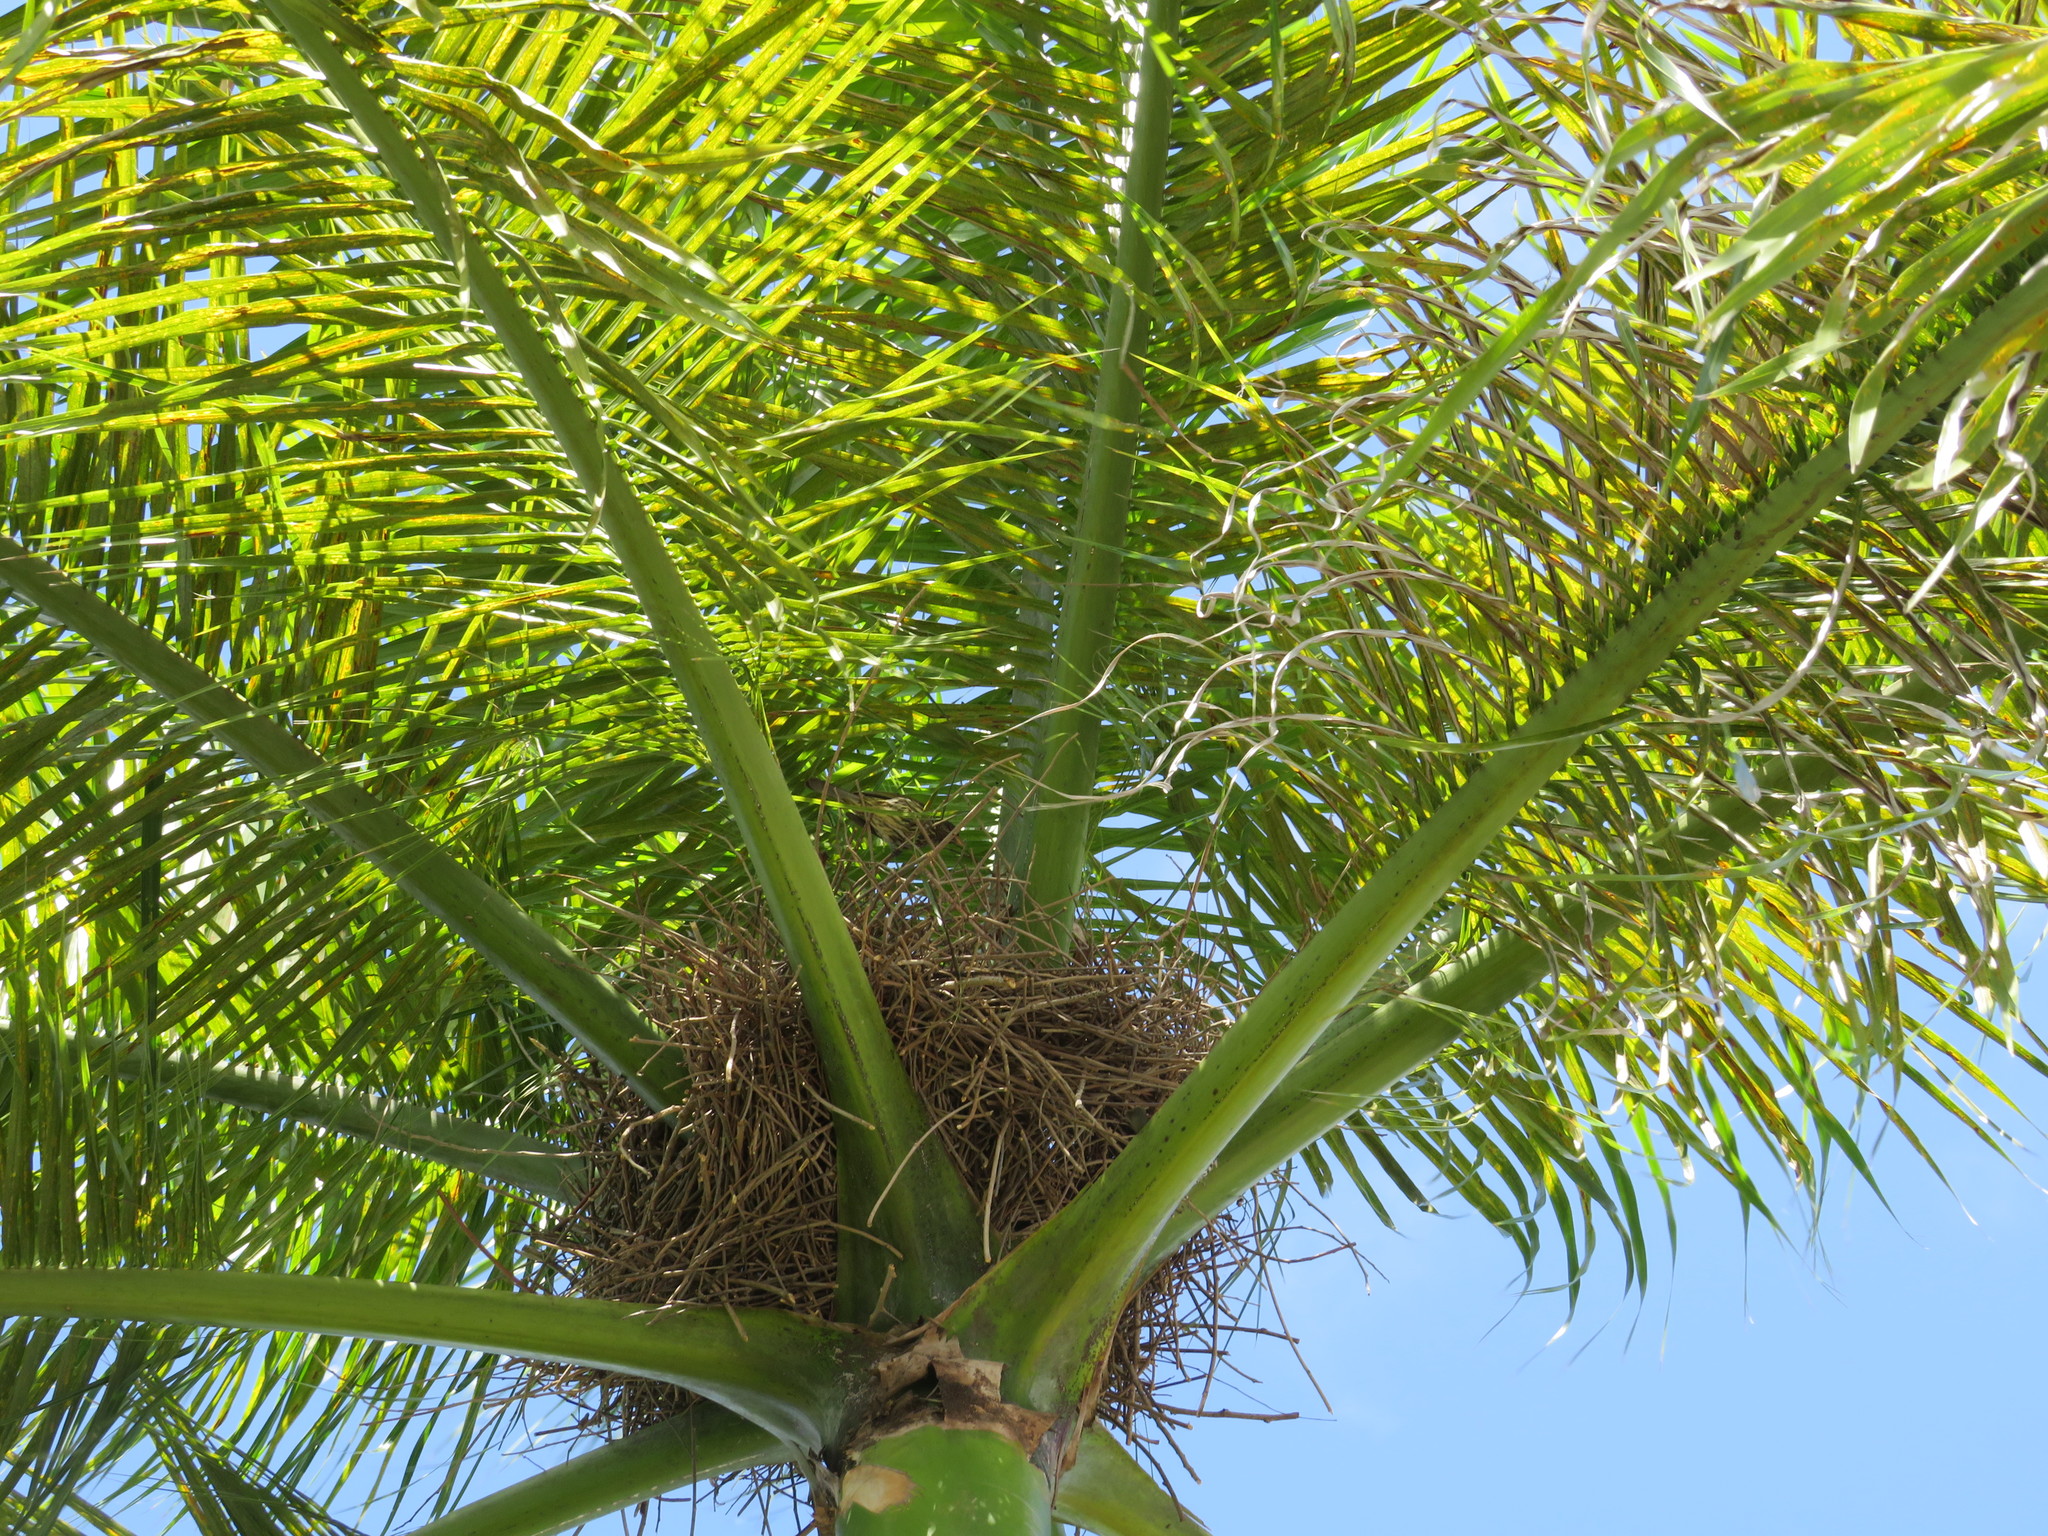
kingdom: Animalia
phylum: Chordata
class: Aves
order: Passeriformes
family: Dulidae
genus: Dulus
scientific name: Dulus dominicus
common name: Palmchat
